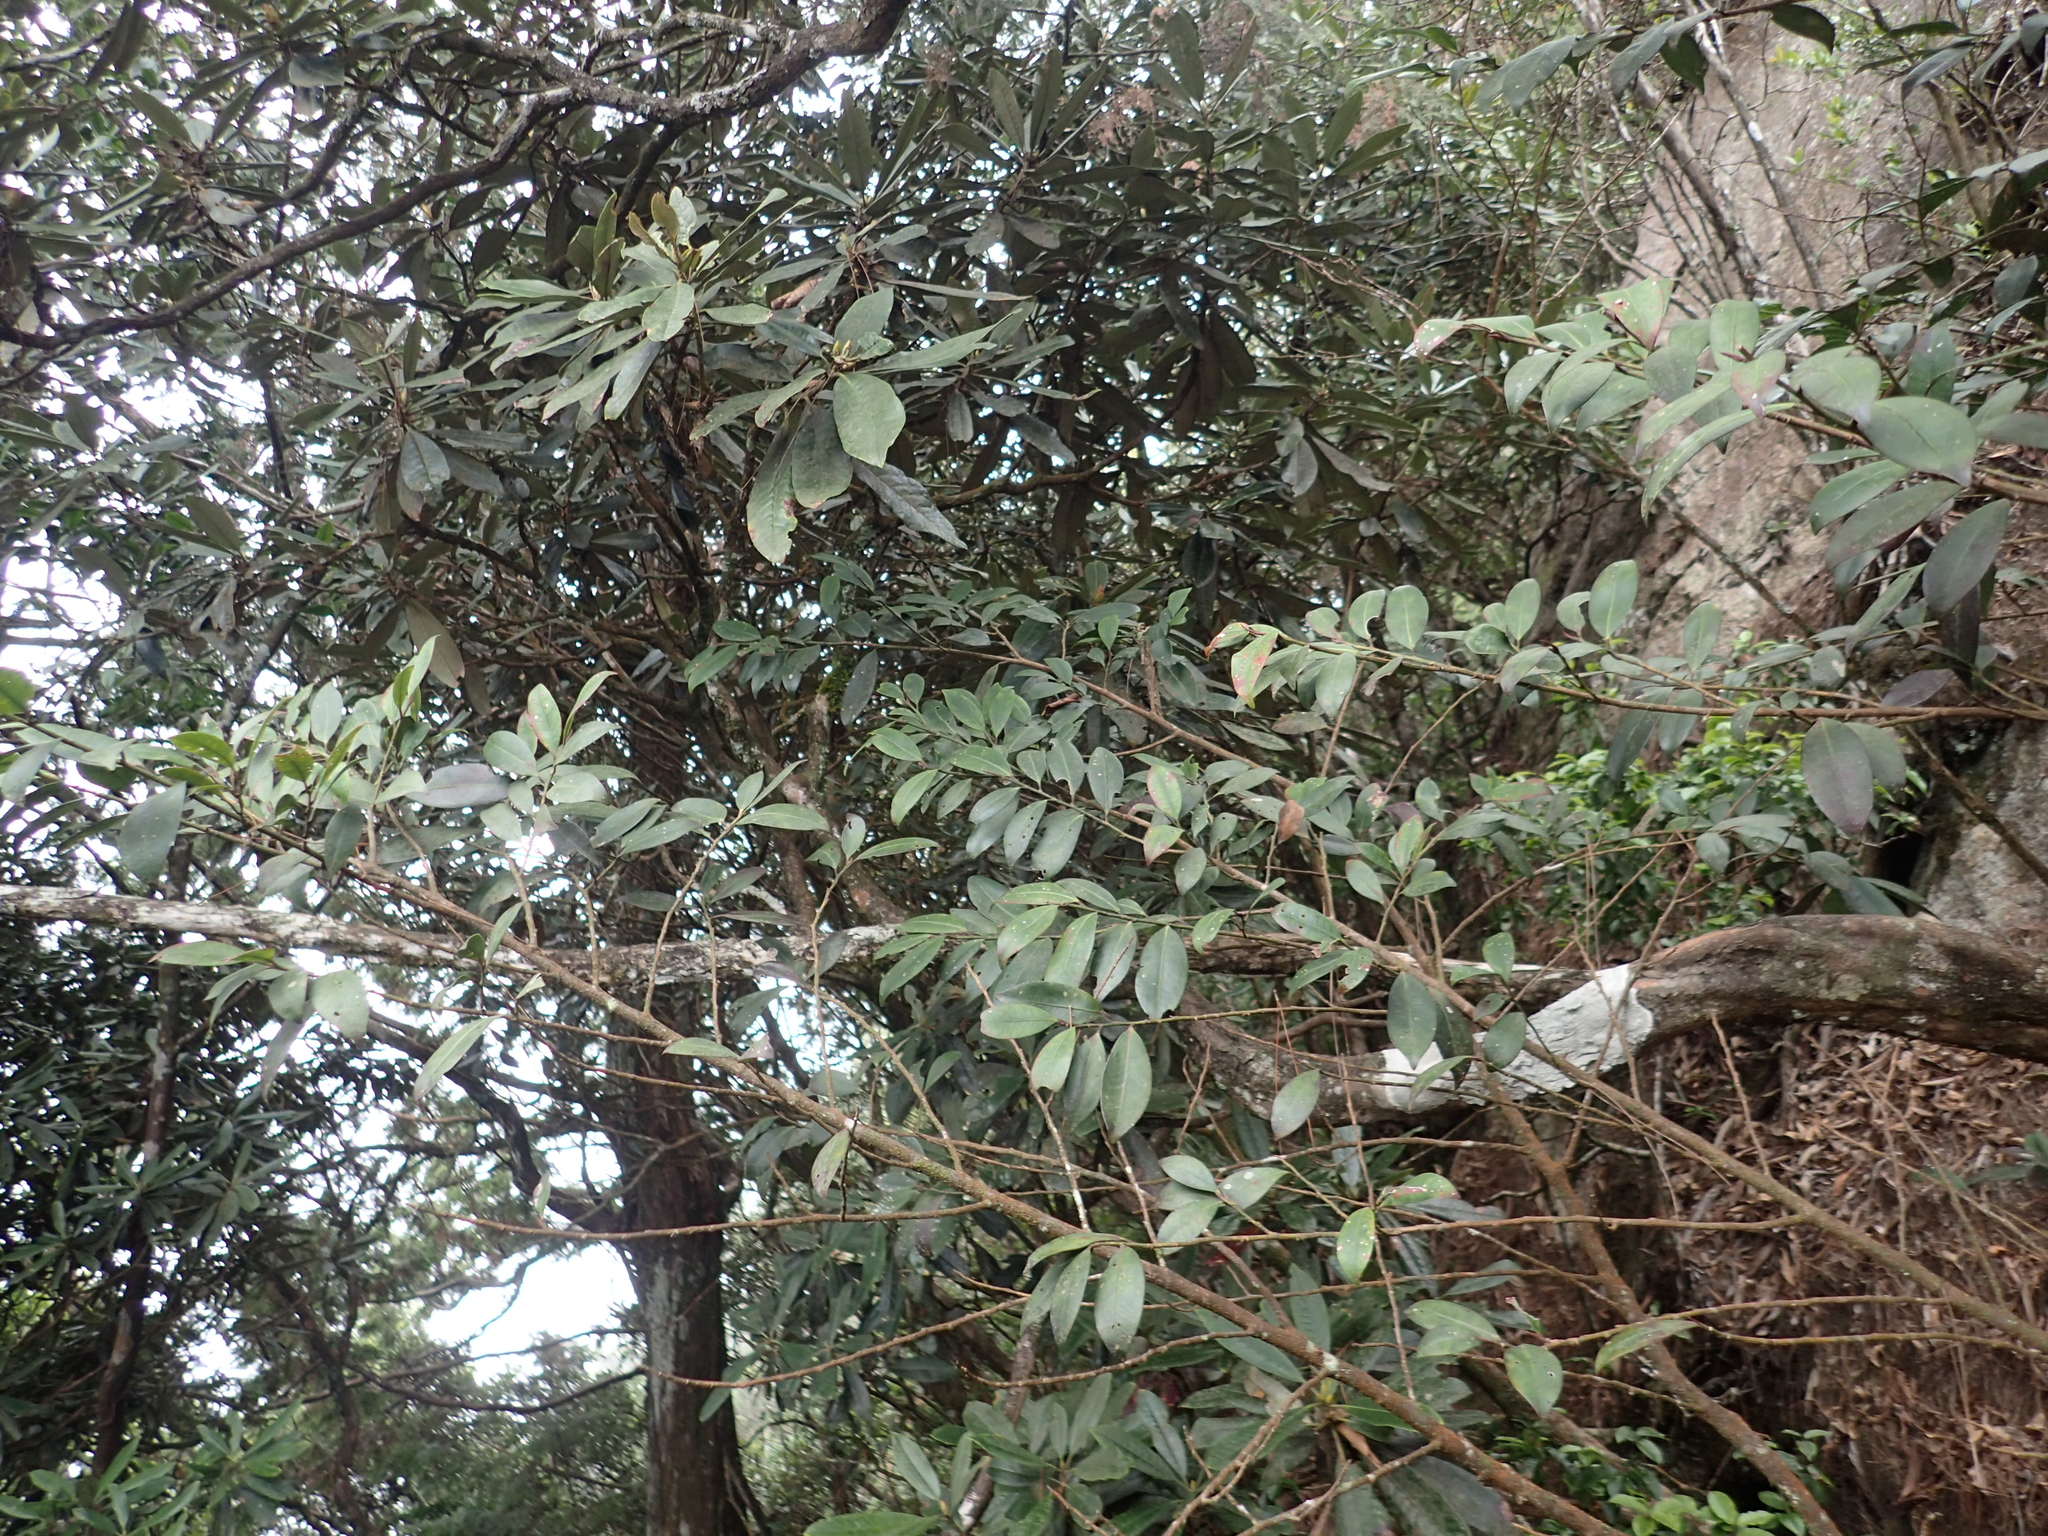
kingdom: Plantae
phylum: Tracheophyta
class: Magnoliopsida
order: Ericales
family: Pentaphylacaceae
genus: Cleyera
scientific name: Cleyera japonica
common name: Sakaki
